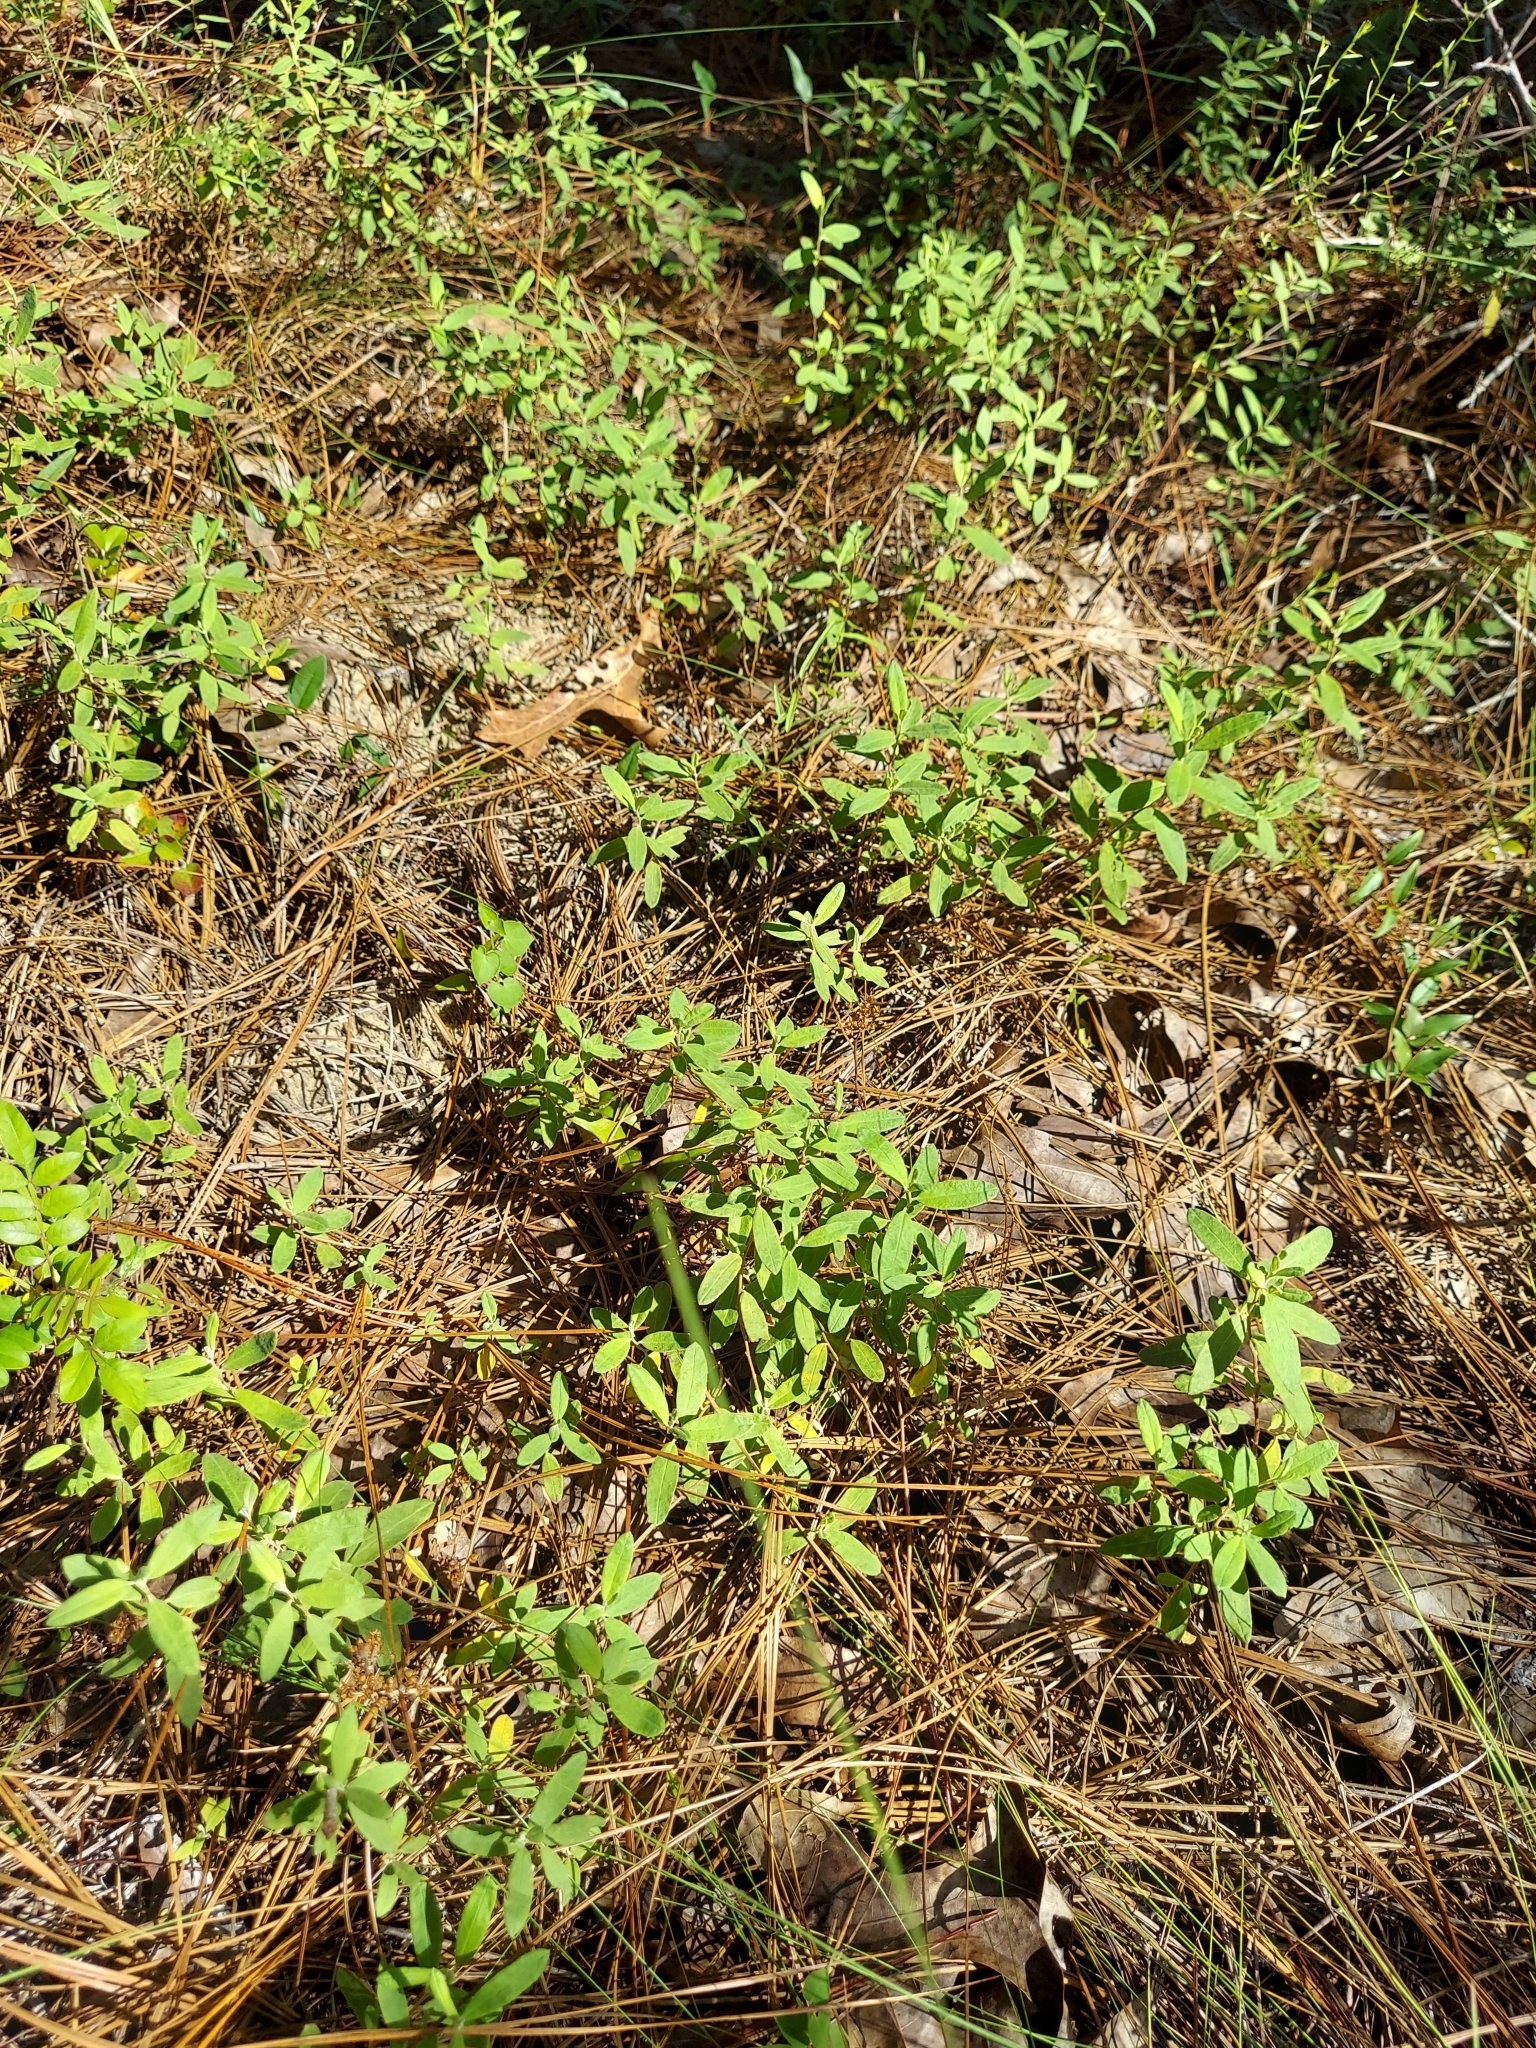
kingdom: Plantae
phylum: Tracheophyta
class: Magnoliopsida
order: Malvales
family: Cistaceae
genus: Crocanthemum
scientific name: Crocanthemum corymbosum
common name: Pinebarren sun-rose
